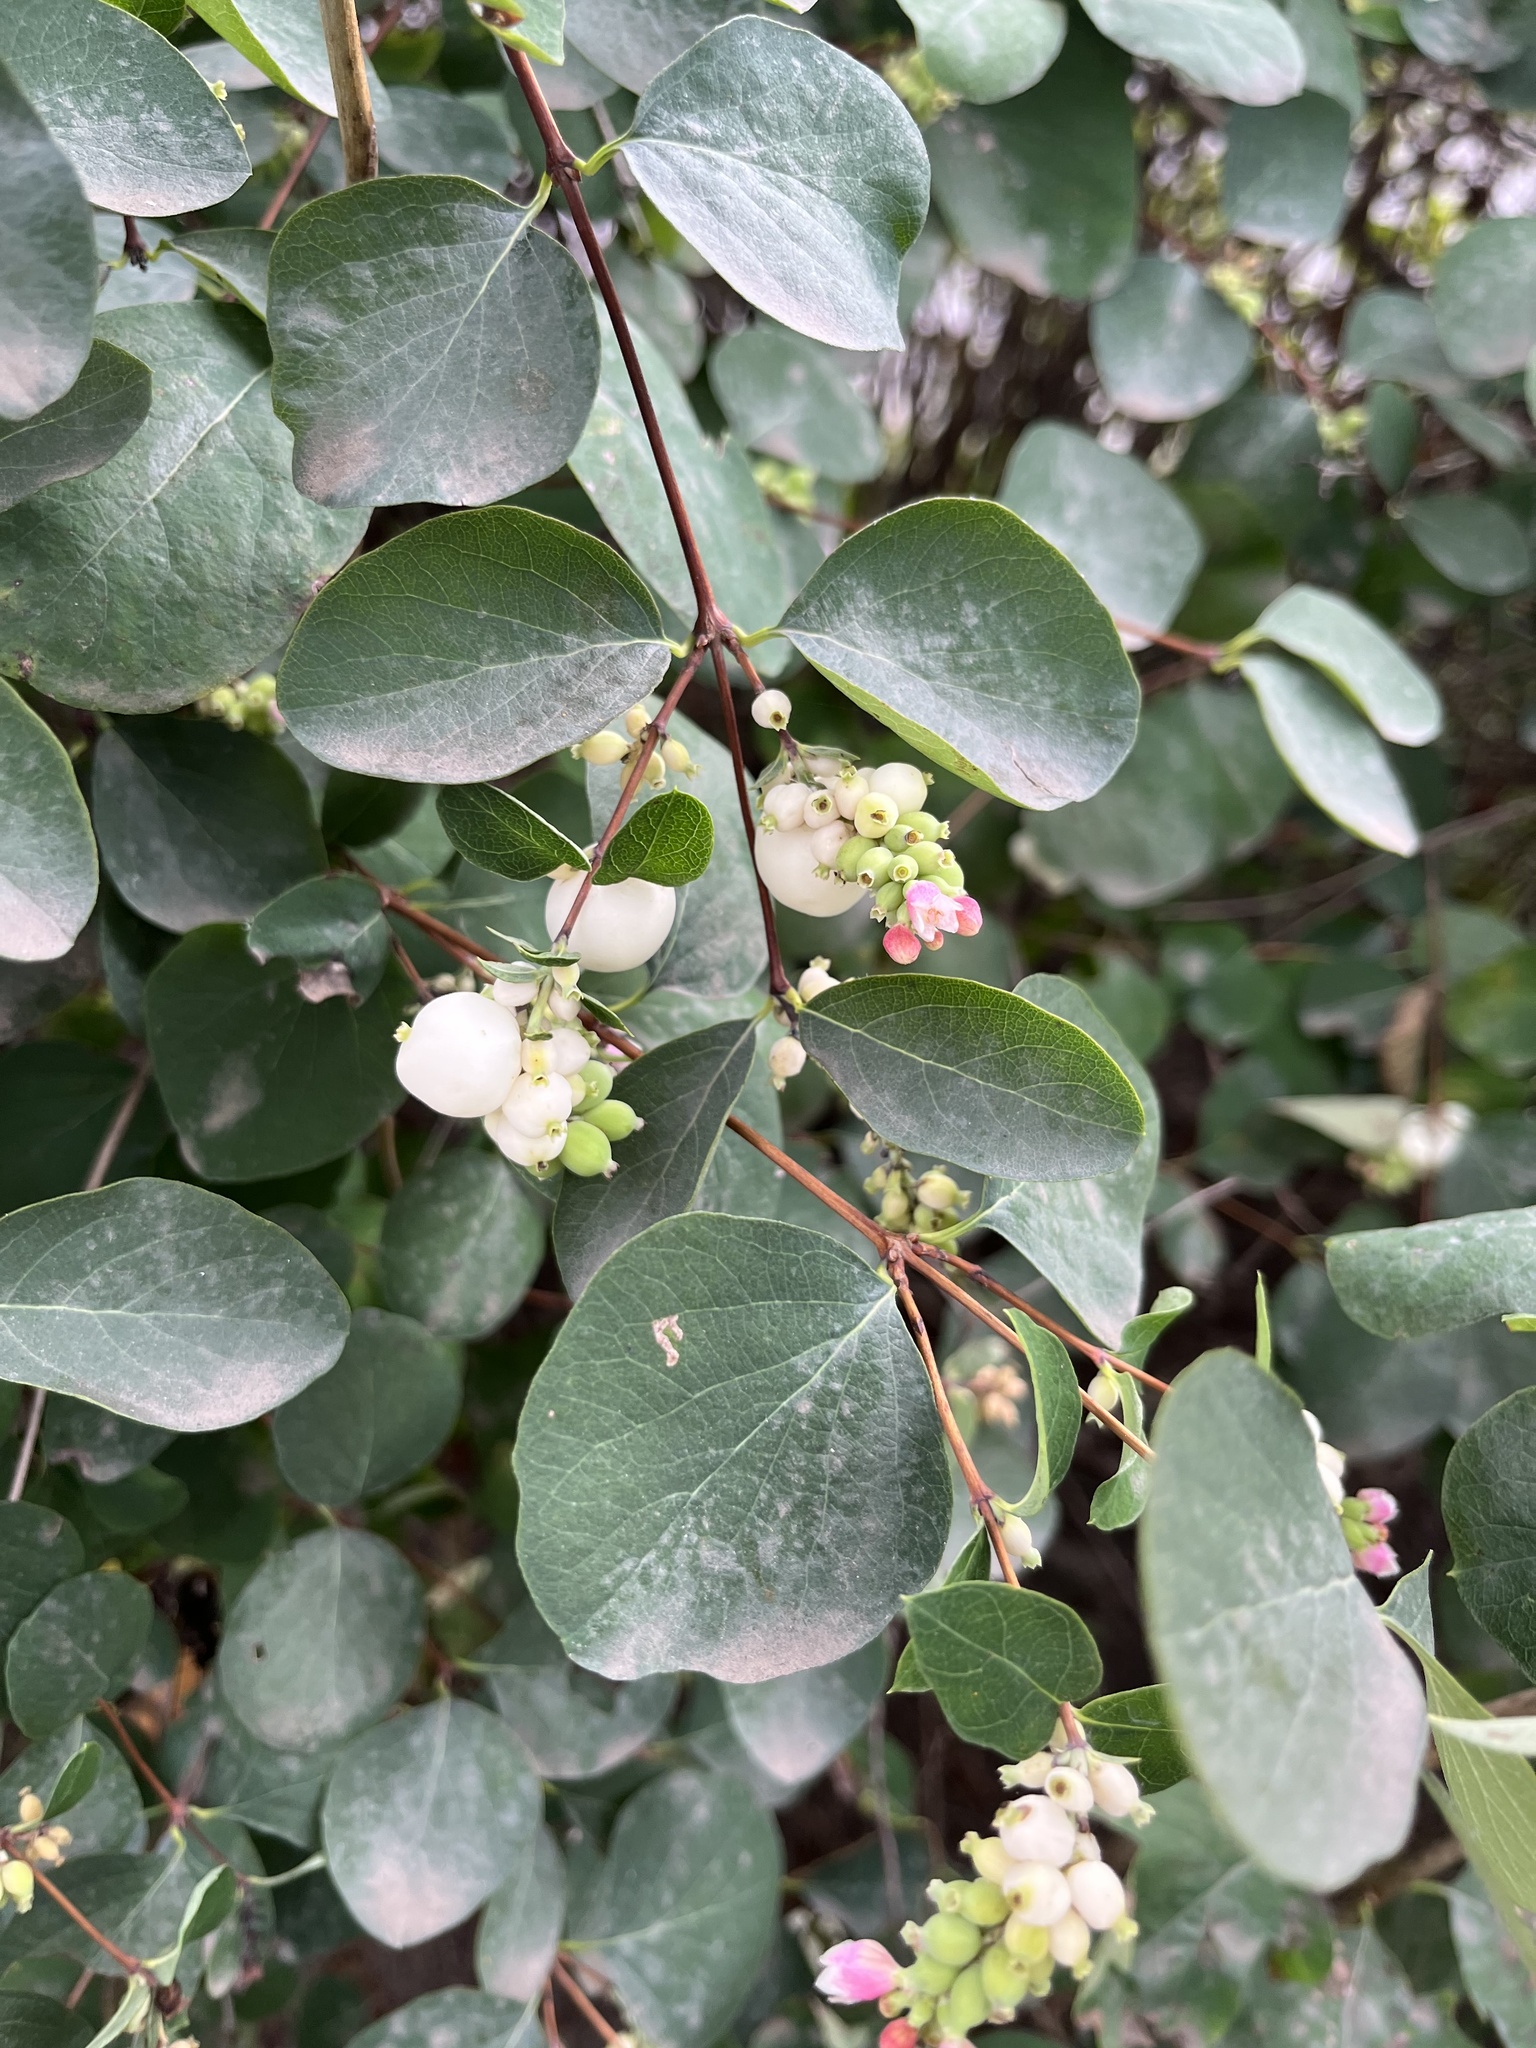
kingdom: Plantae
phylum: Tracheophyta
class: Magnoliopsida
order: Dipsacales
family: Caprifoliaceae
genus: Symphoricarpos
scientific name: Symphoricarpos albus
